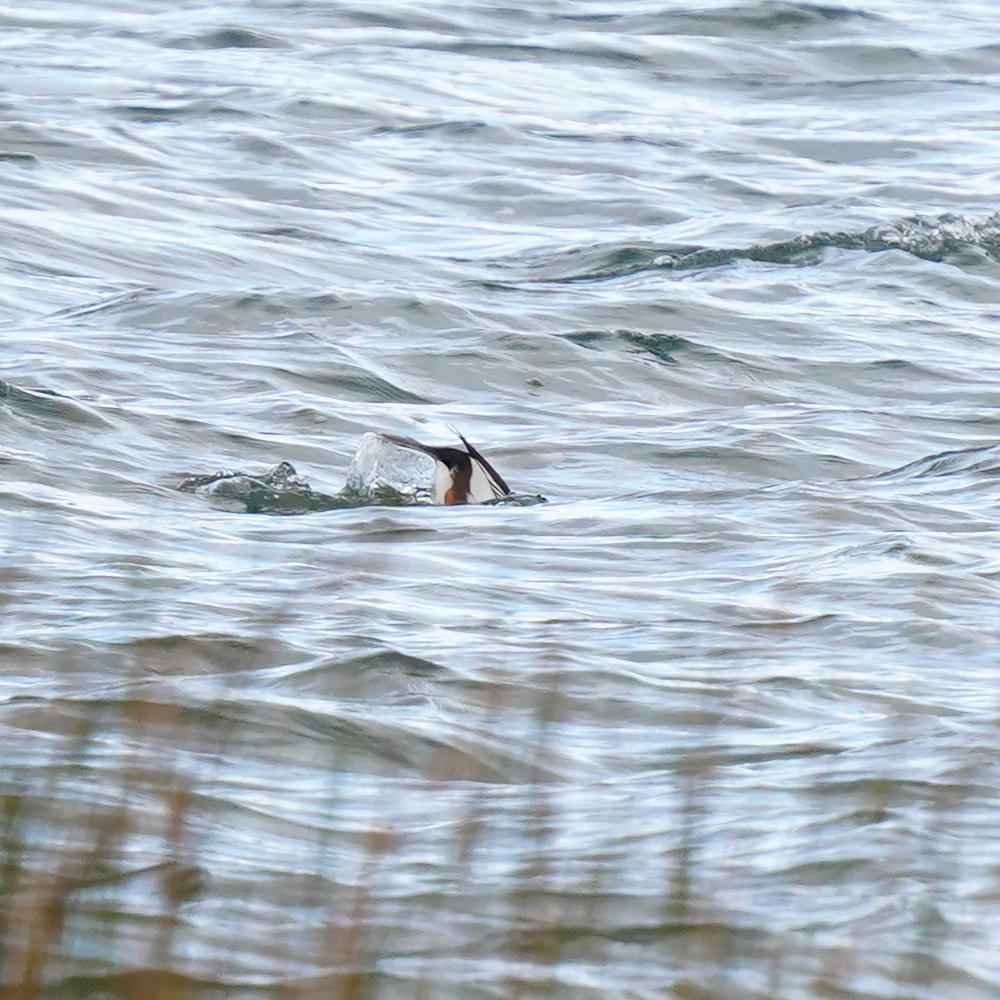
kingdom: Animalia
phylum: Chordata
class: Aves
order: Anseriformes
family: Anatidae
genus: Bucephala
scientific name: Bucephala islandica
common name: Barrow's goldeneye
